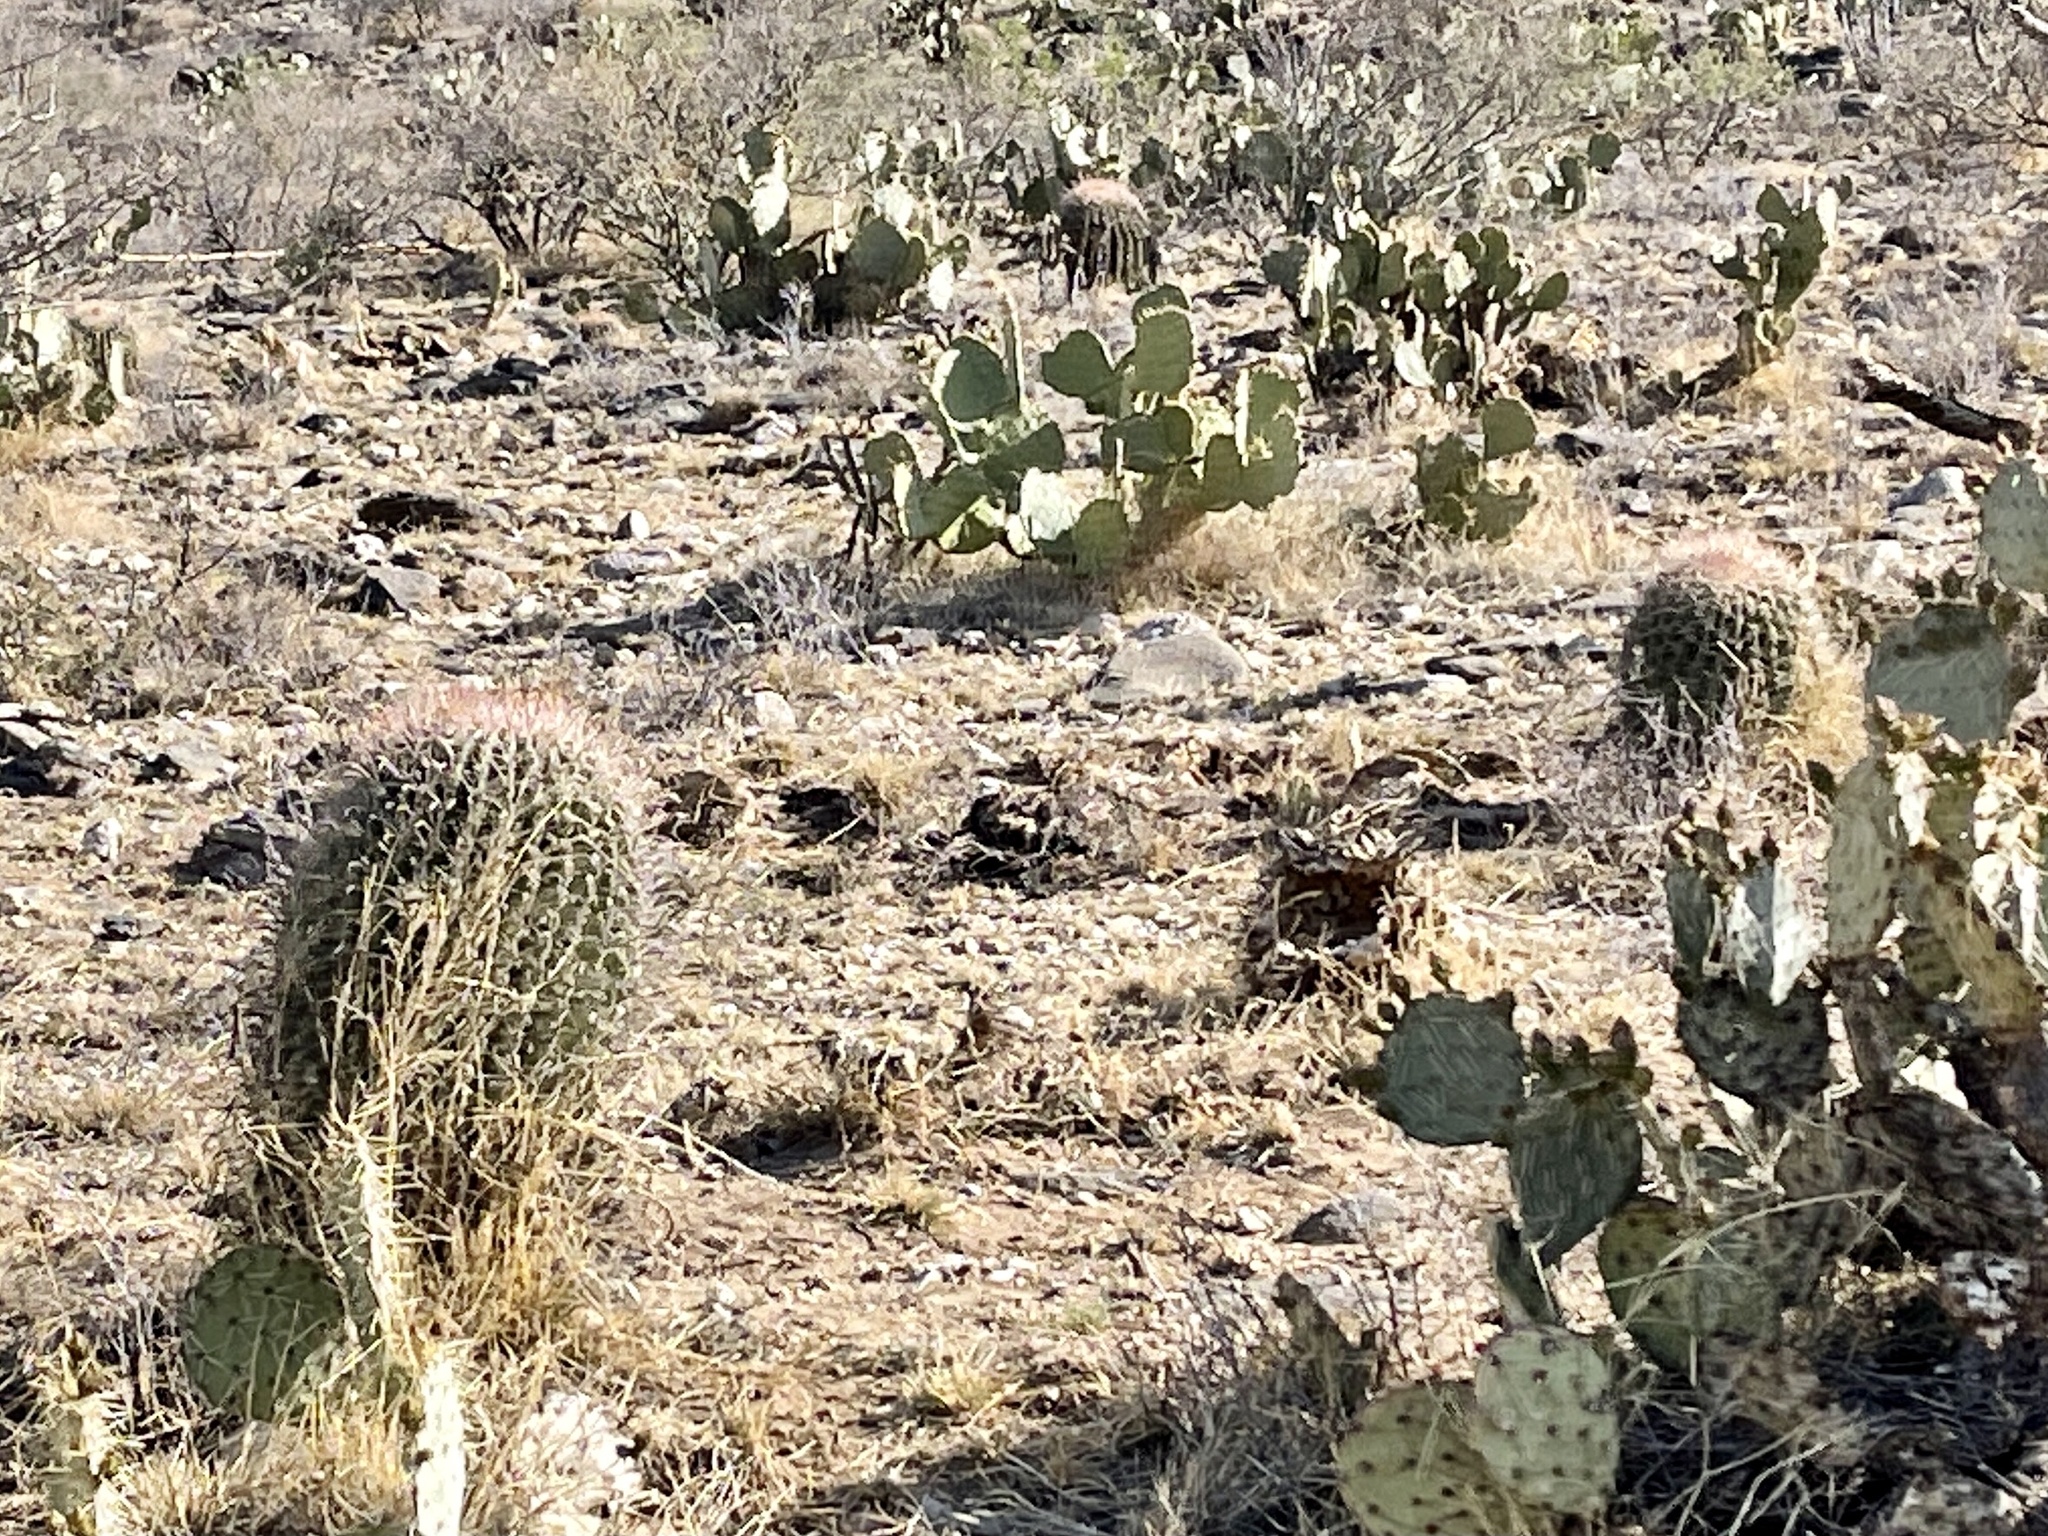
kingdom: Plantae
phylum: Tracheophyta
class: Magnoliopsida
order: Caryophyllales
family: Cactaceae
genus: Ferocactus
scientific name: Ferocactus wislizeni
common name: Candy barrel cactus
